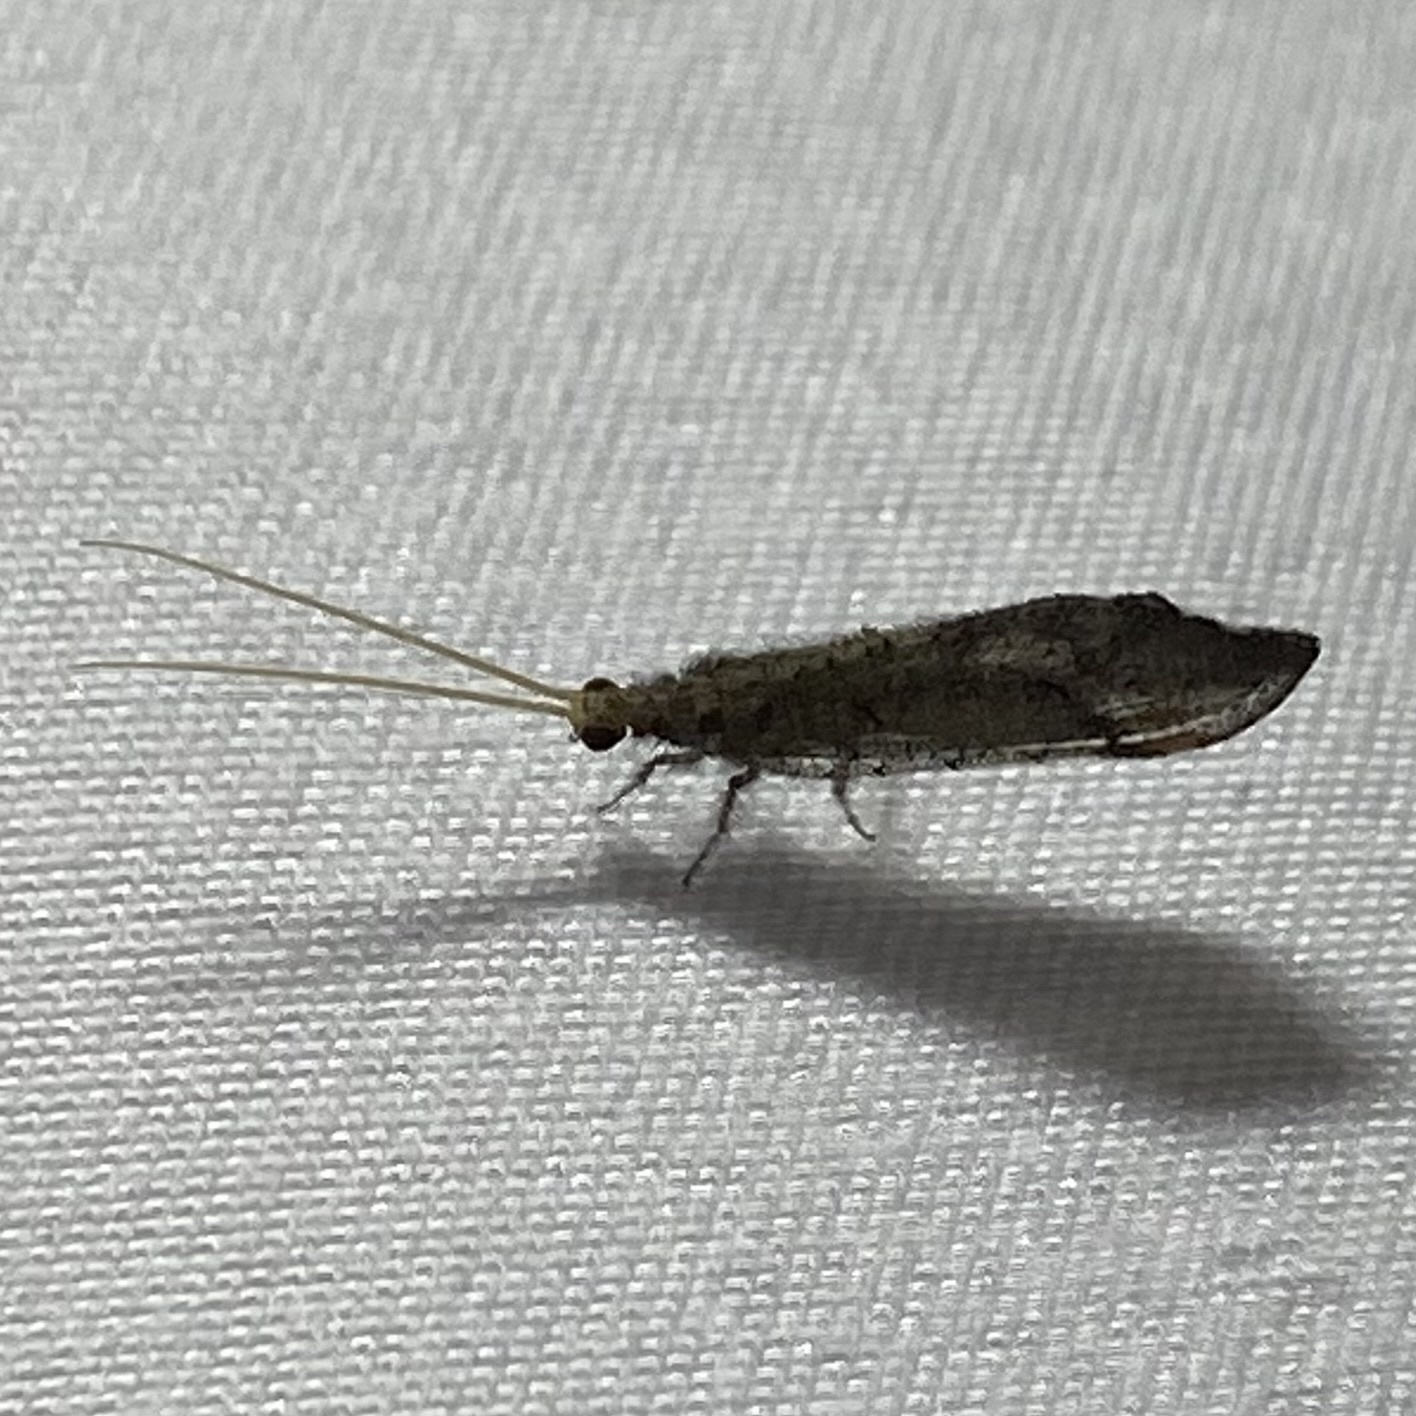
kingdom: Animalia
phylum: Arthropoda
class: Insecta
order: Neuroptera
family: Berothidae
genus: Lomamyia
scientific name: Lomamyia squamosa
